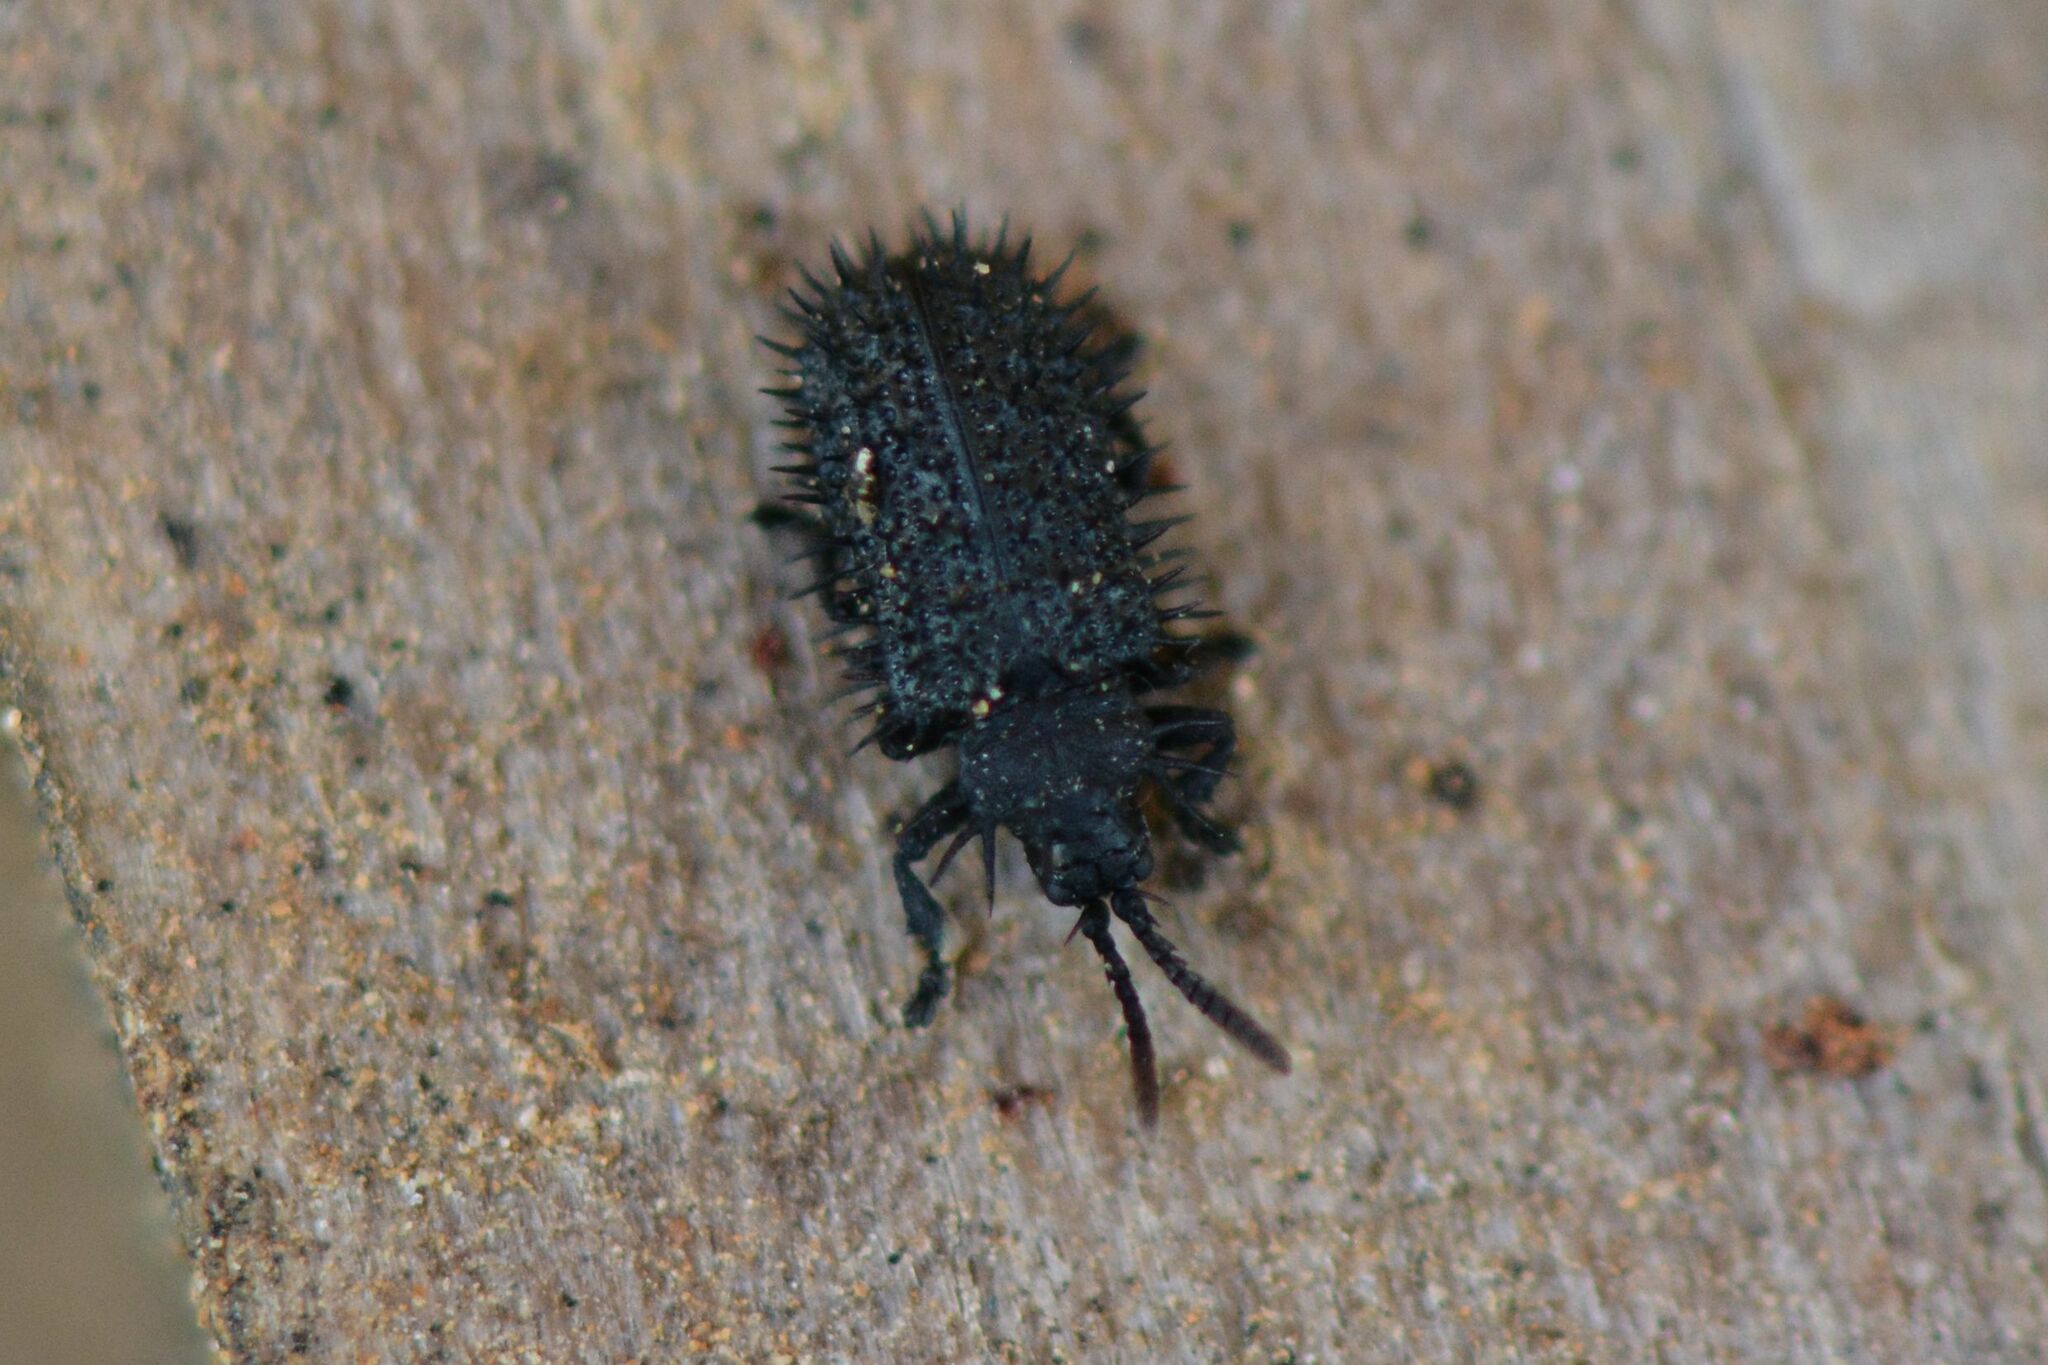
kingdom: Animalia
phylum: Arthropoda
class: Insecta
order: Coleoptera
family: Chrysomelidae
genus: Hispa
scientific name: Hispa atra
